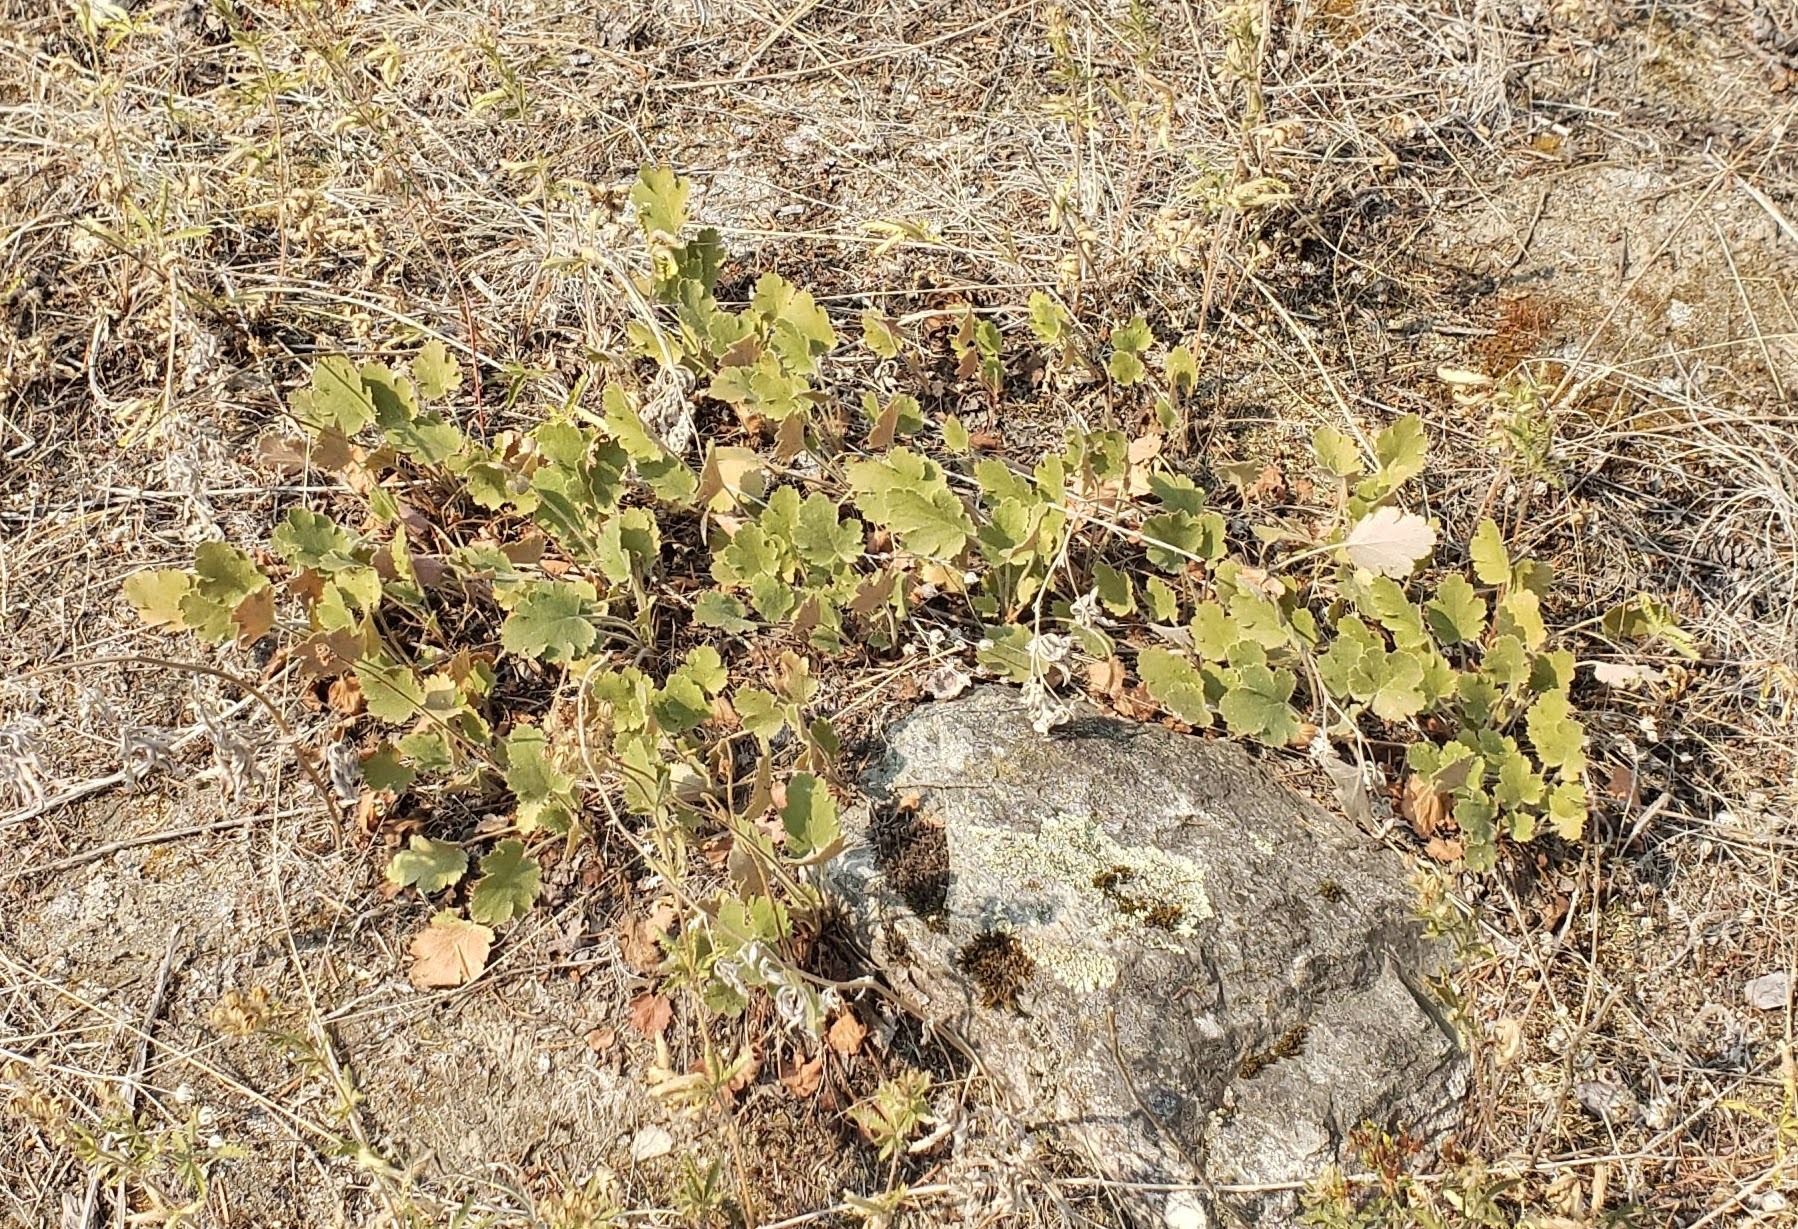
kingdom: Plantae
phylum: Tracheophyta
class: Magnoliopsida
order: Saxifragales
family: Saxifragaceae
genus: Heuchera
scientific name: Heuchera cylindrica
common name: Mat alumroot
